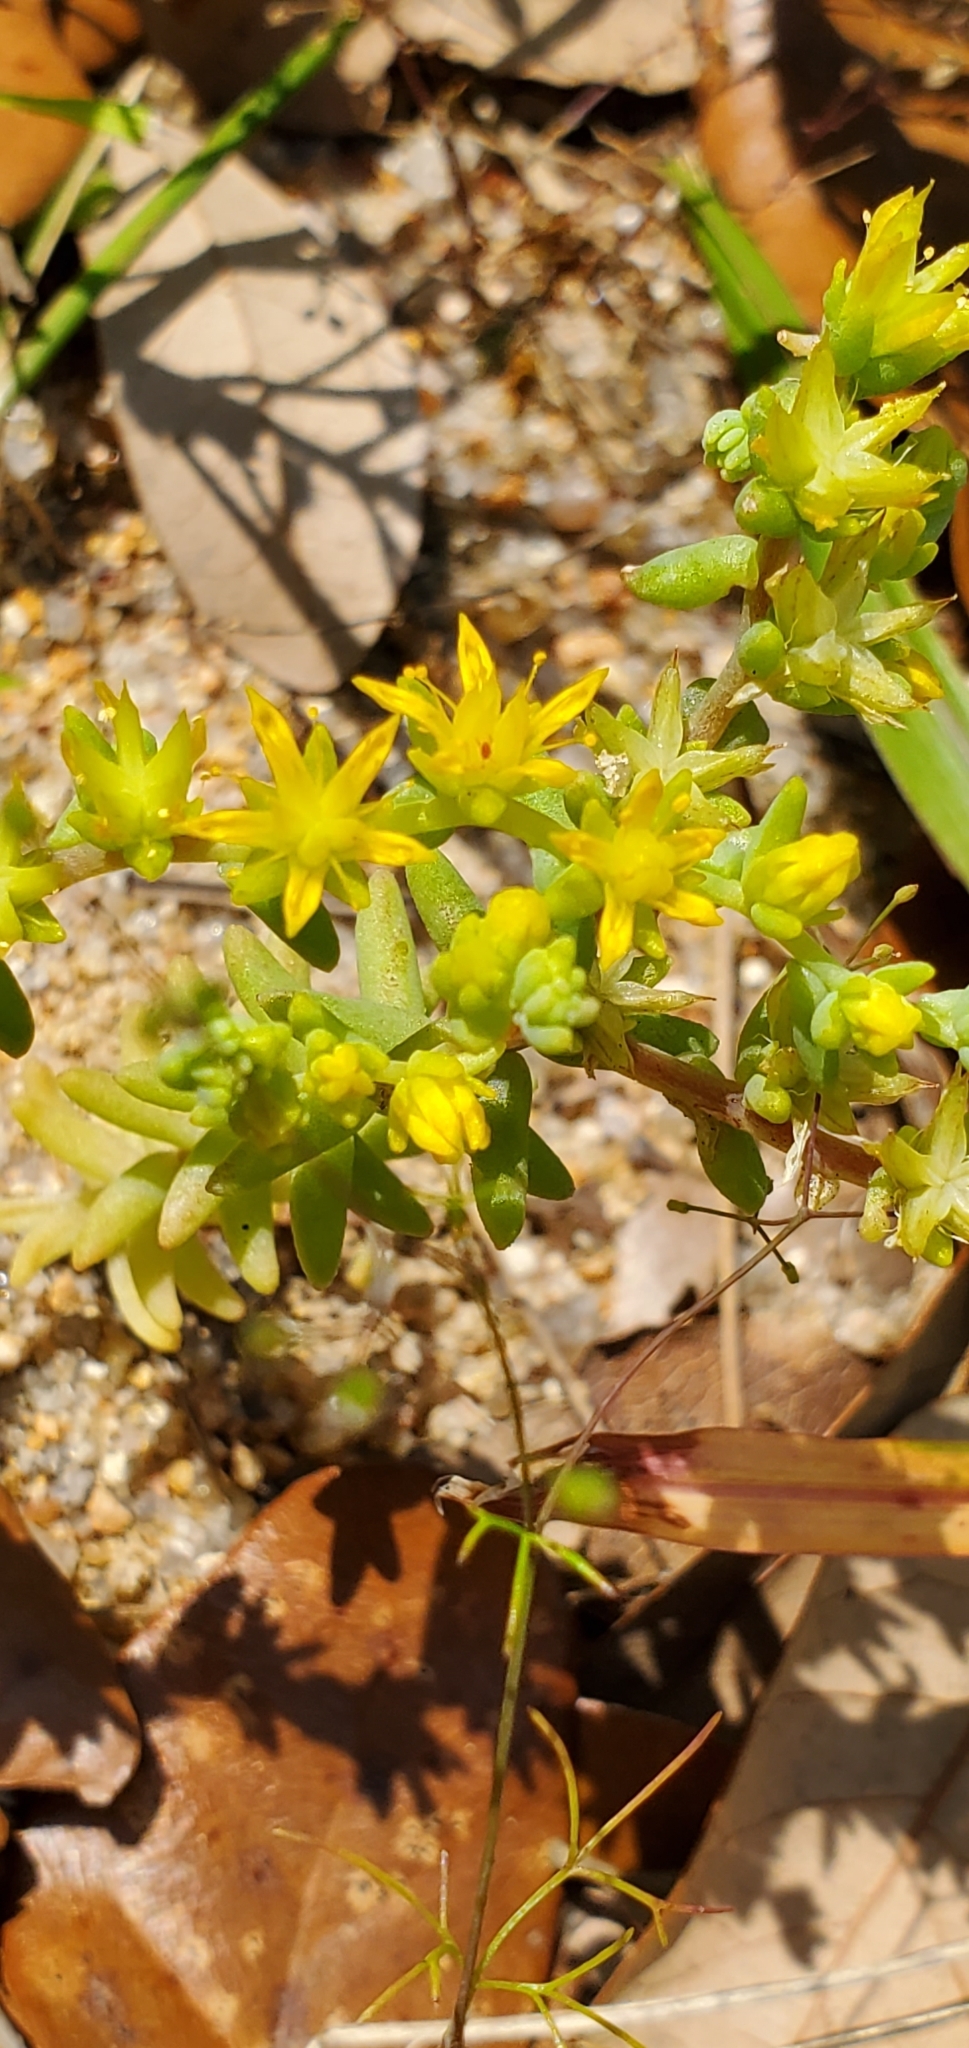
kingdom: Plantae
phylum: Tracheophyta
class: Magnoliopsida
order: Saxifragales
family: Crassulaceae
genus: Sedum
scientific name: Sedum nuttallii
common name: Yellow stonecrop
